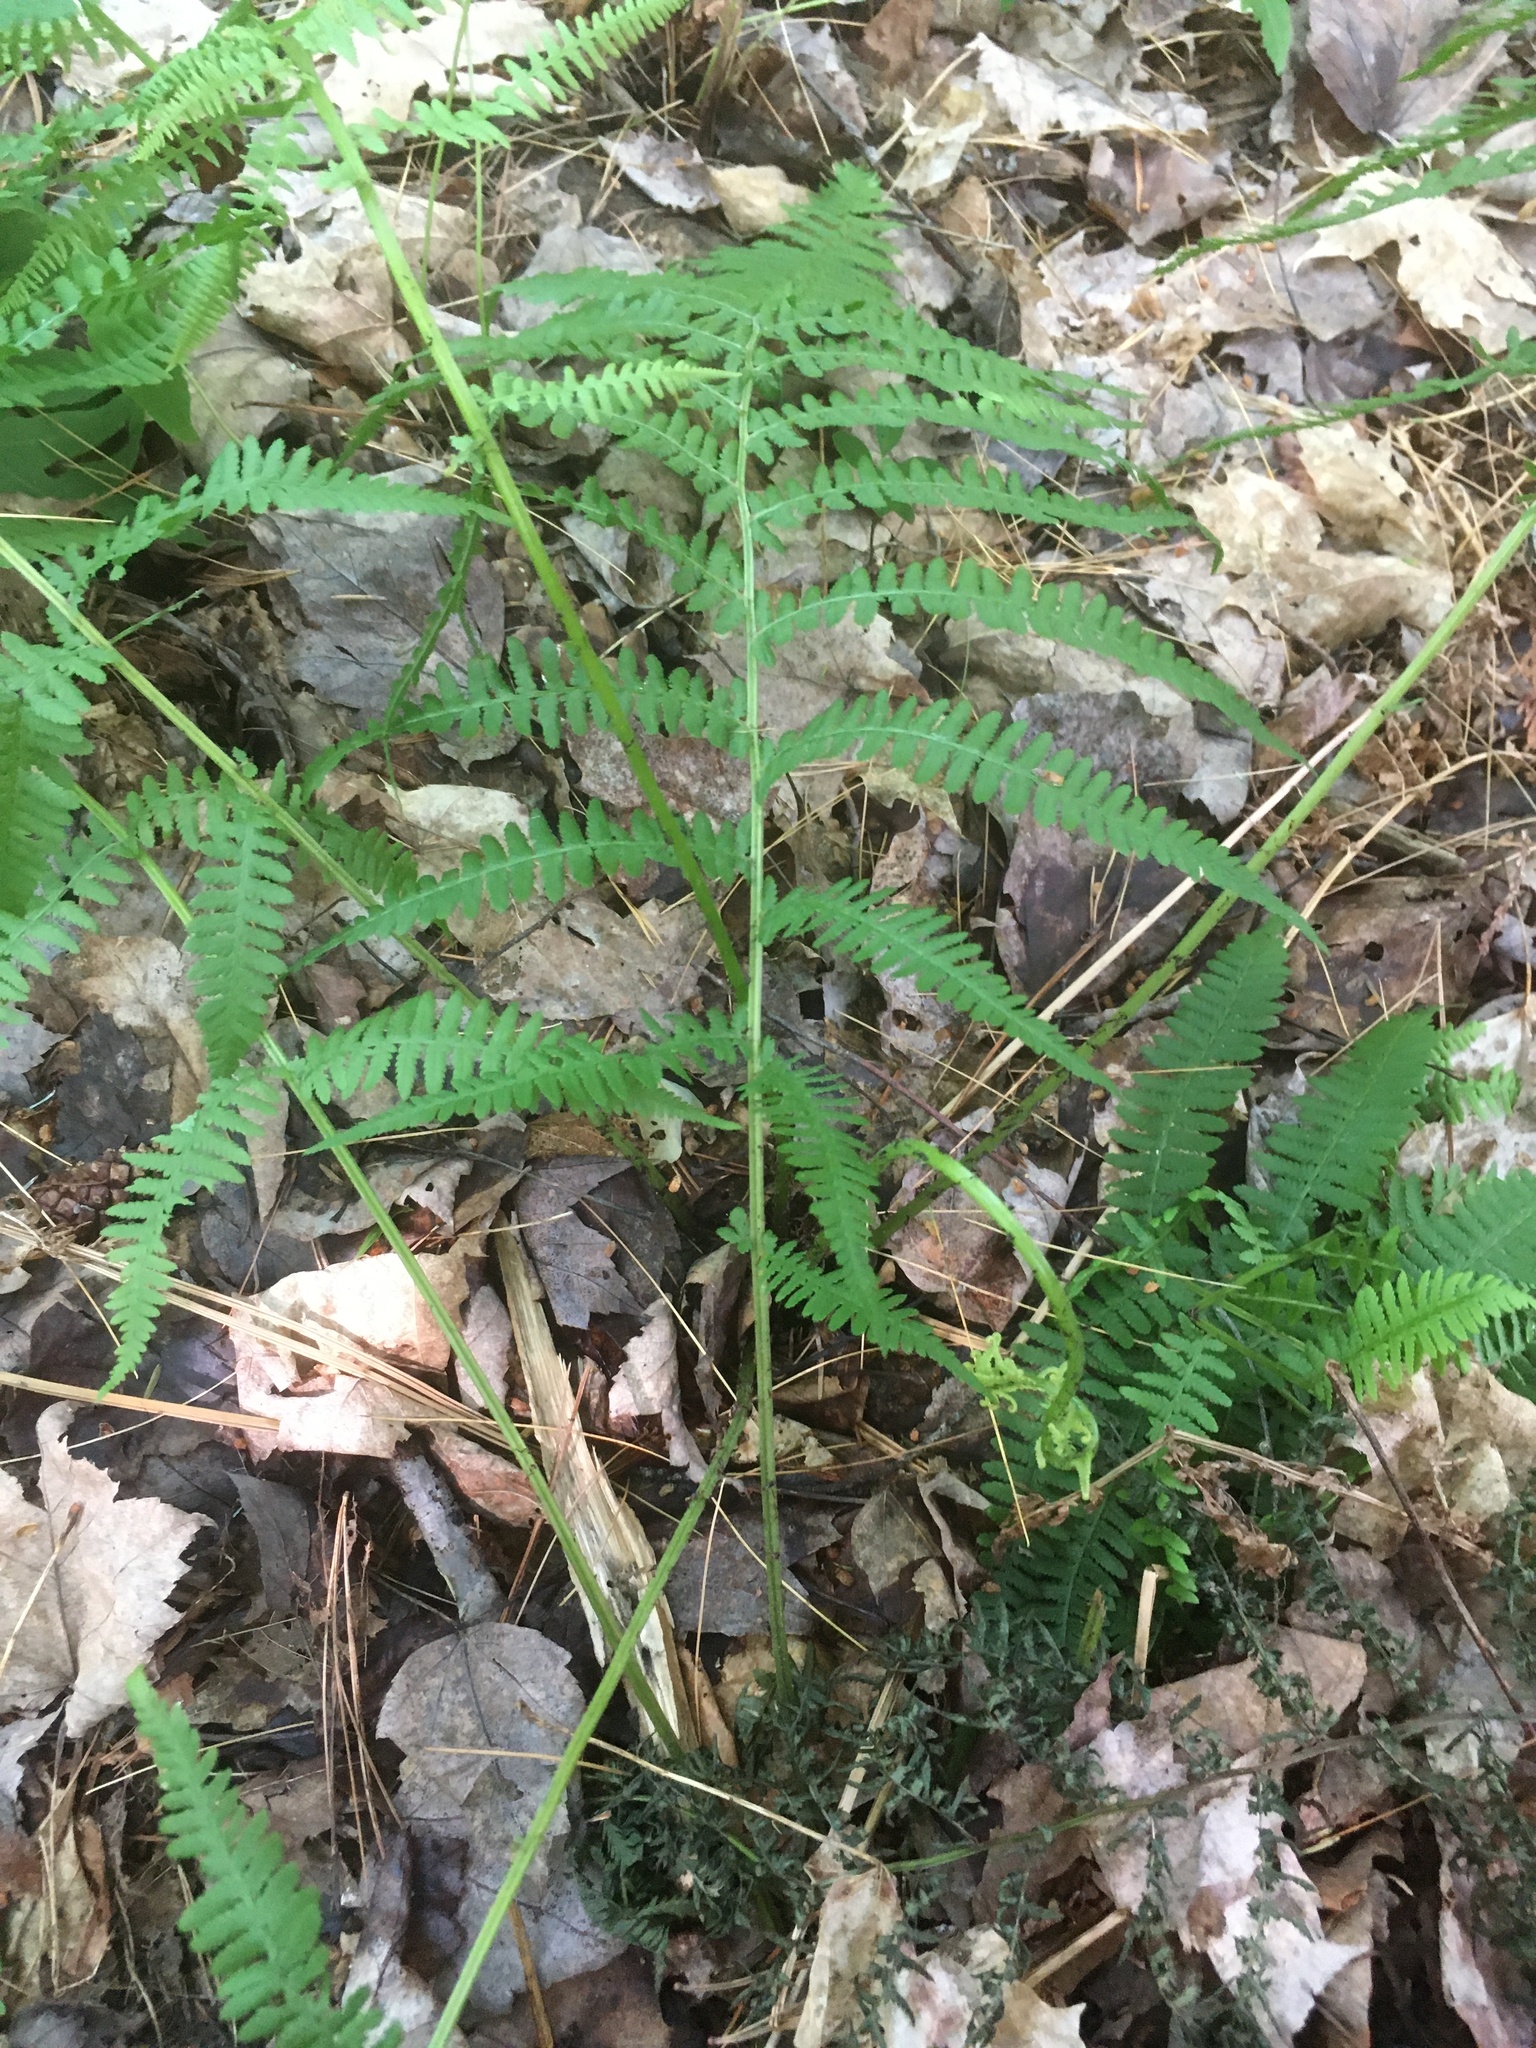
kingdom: Plantae
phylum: Tracheophyta
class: Polypodiopsida
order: Polypodiales
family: Athyriaceae
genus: Athyrium
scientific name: Athyrium angustum
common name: Northern lady fern
